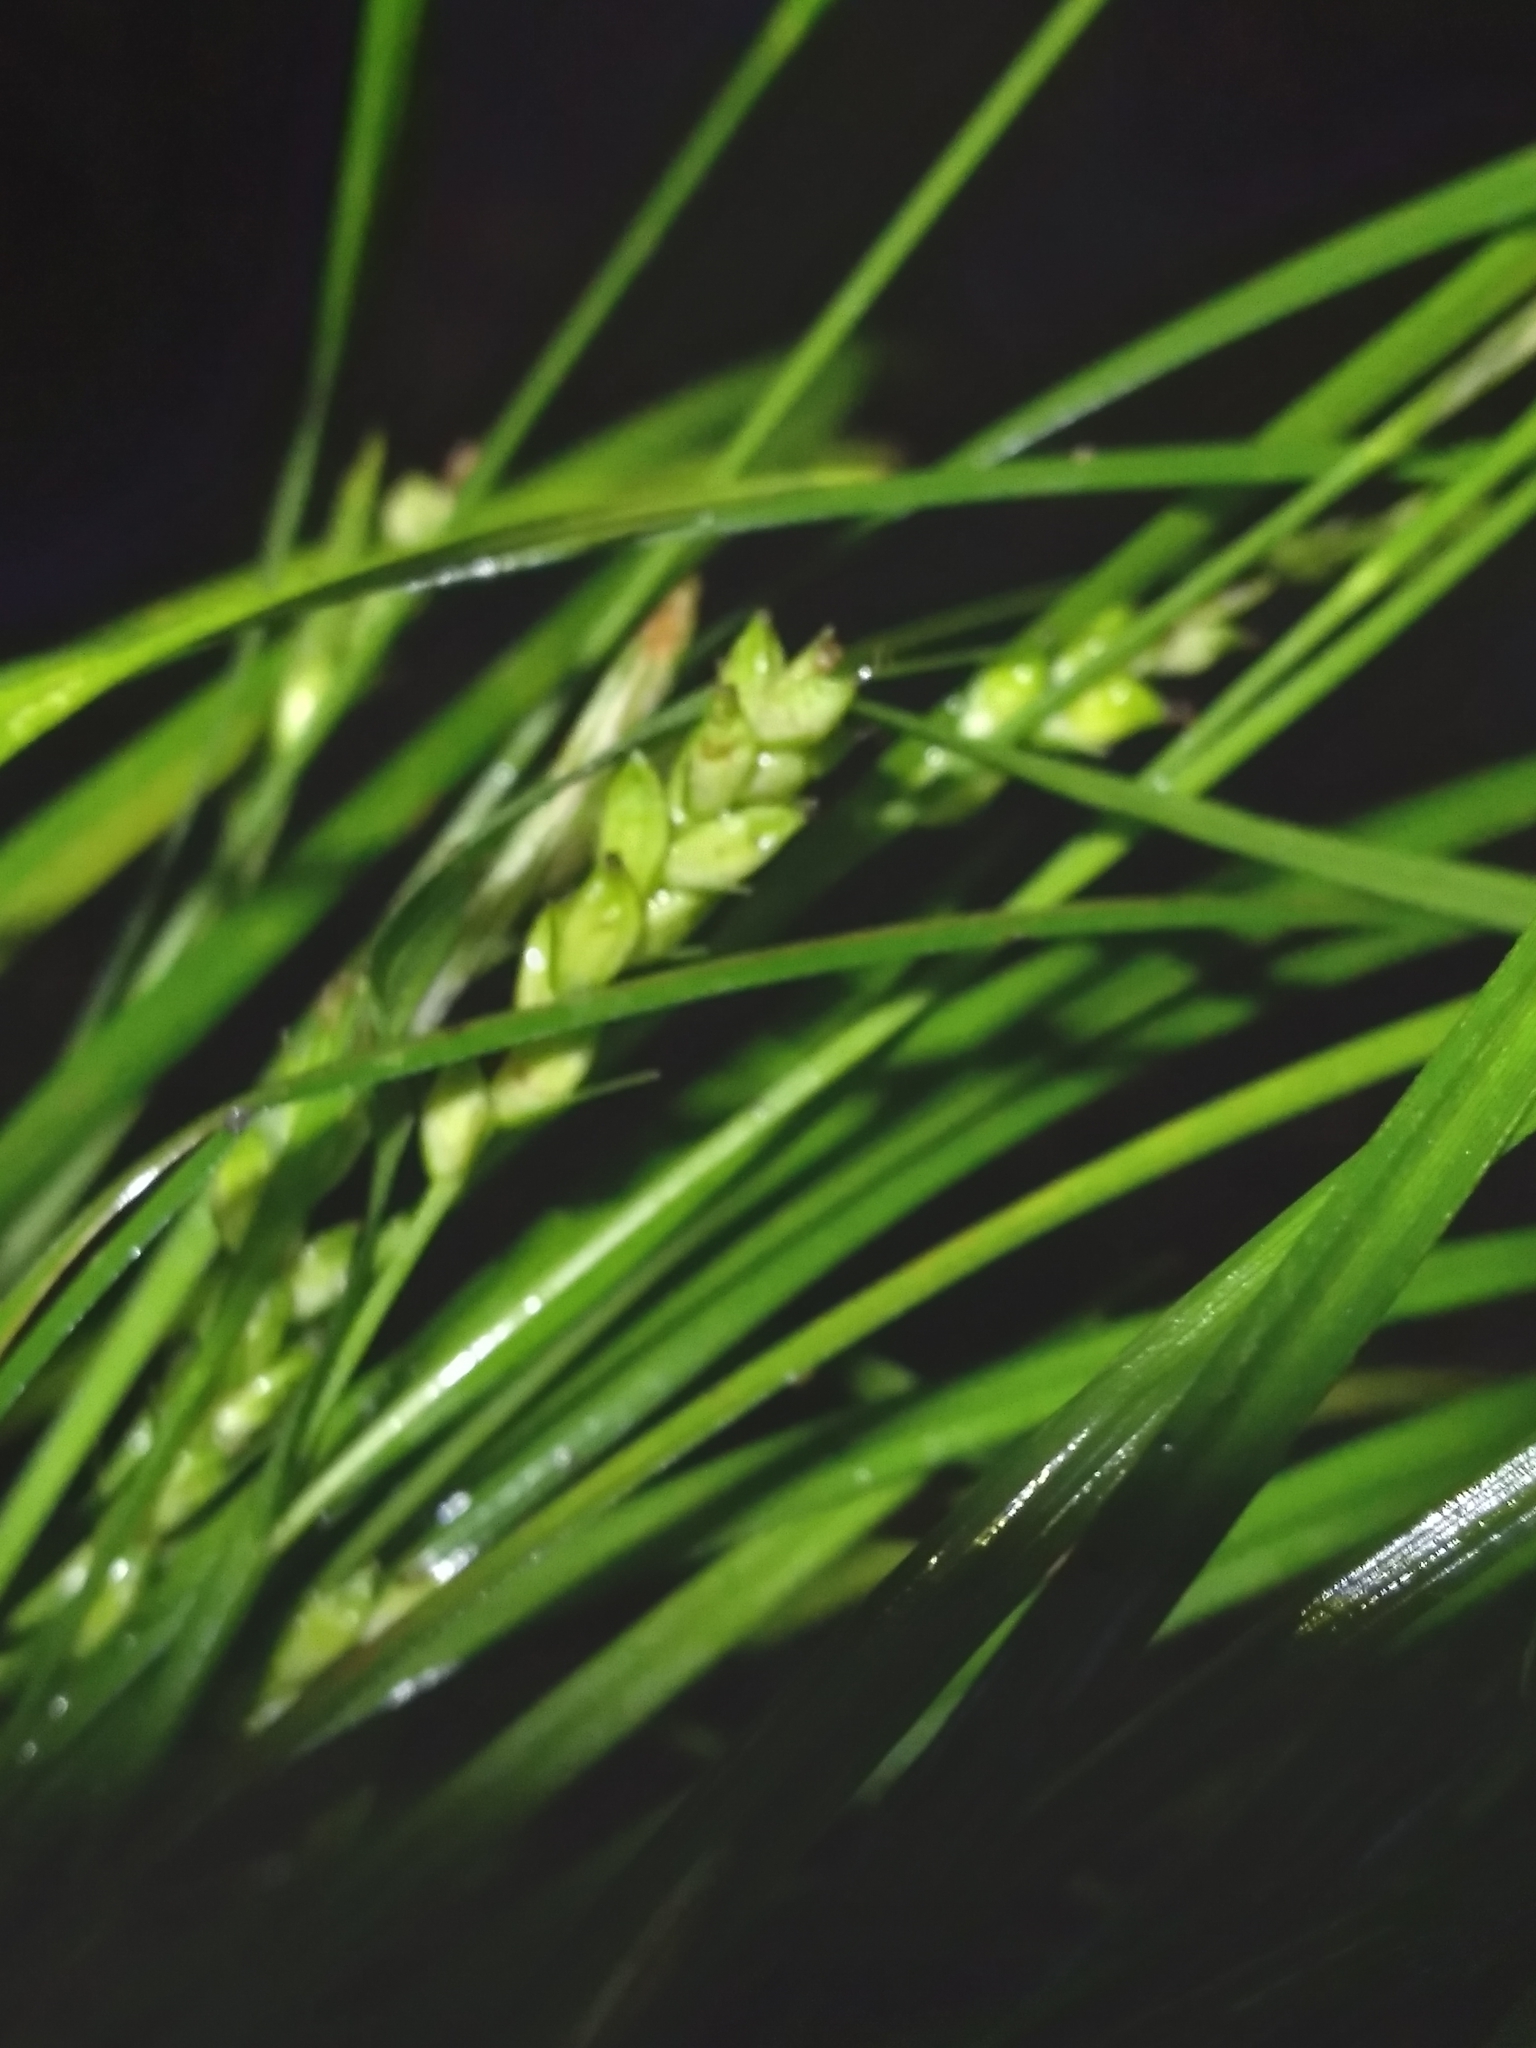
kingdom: Plantae
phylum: Tracheophyta
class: Liliopsida
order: Poales
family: Cyperaceae
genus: Carex
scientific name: Carex godfreyi
